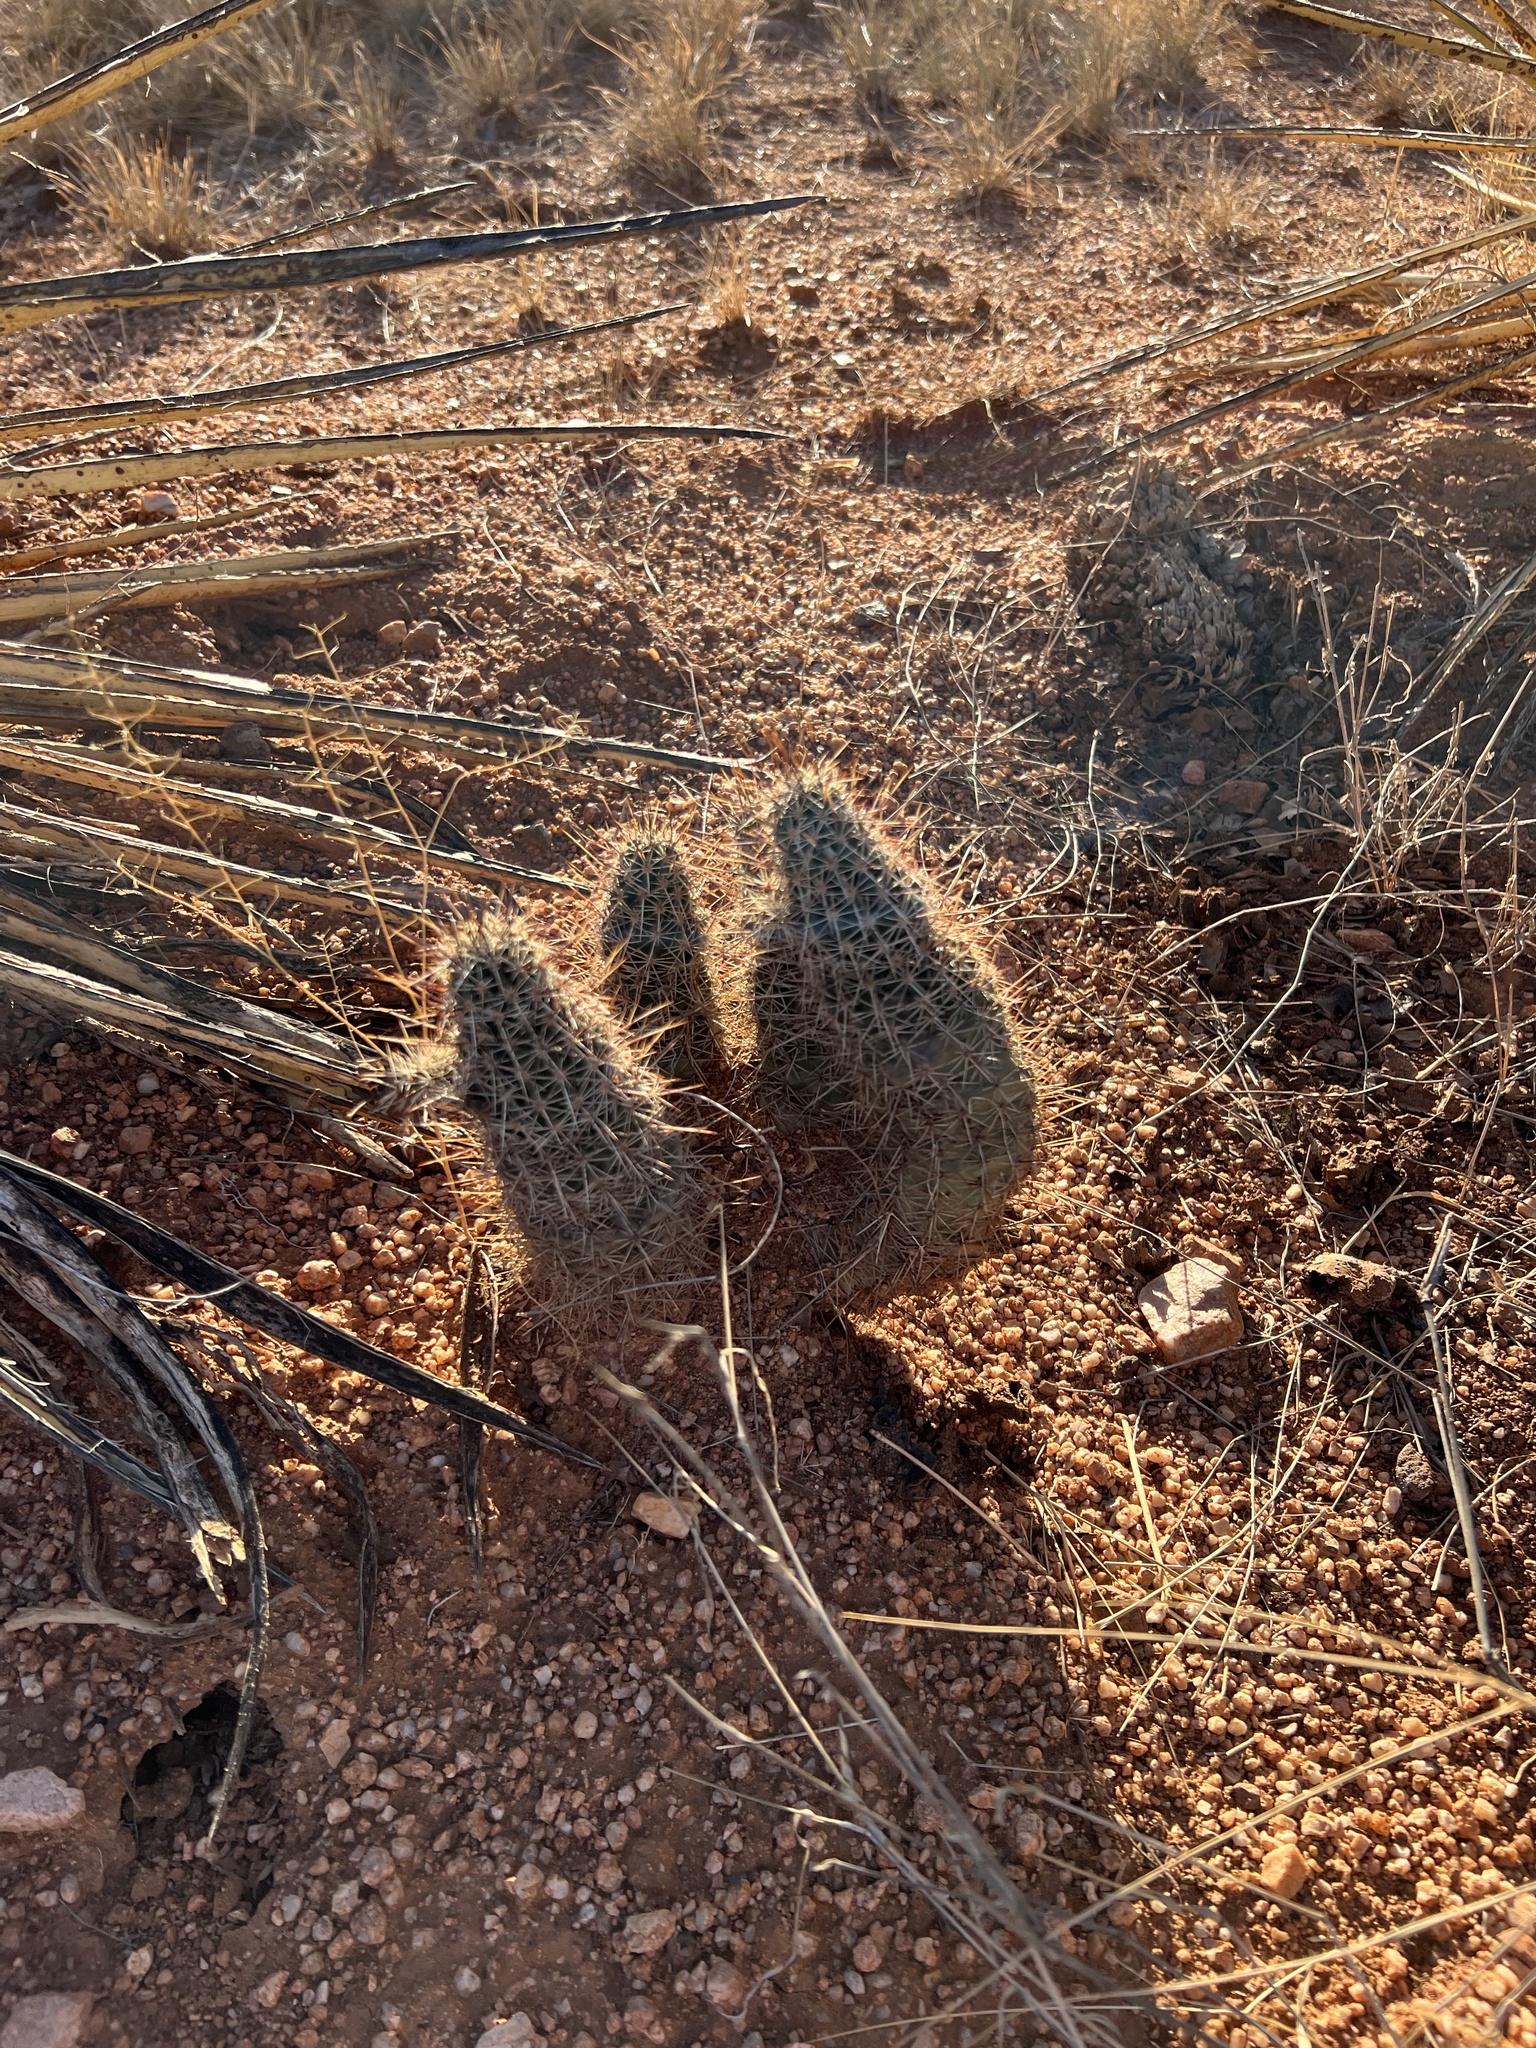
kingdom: Plantae
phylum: Tracheophyta
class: Magnoliopsida
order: Caryophyllales
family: Cactaceae
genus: Echinocereus
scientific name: Echinocereus fasciculatus
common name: Bundle hedgehog
